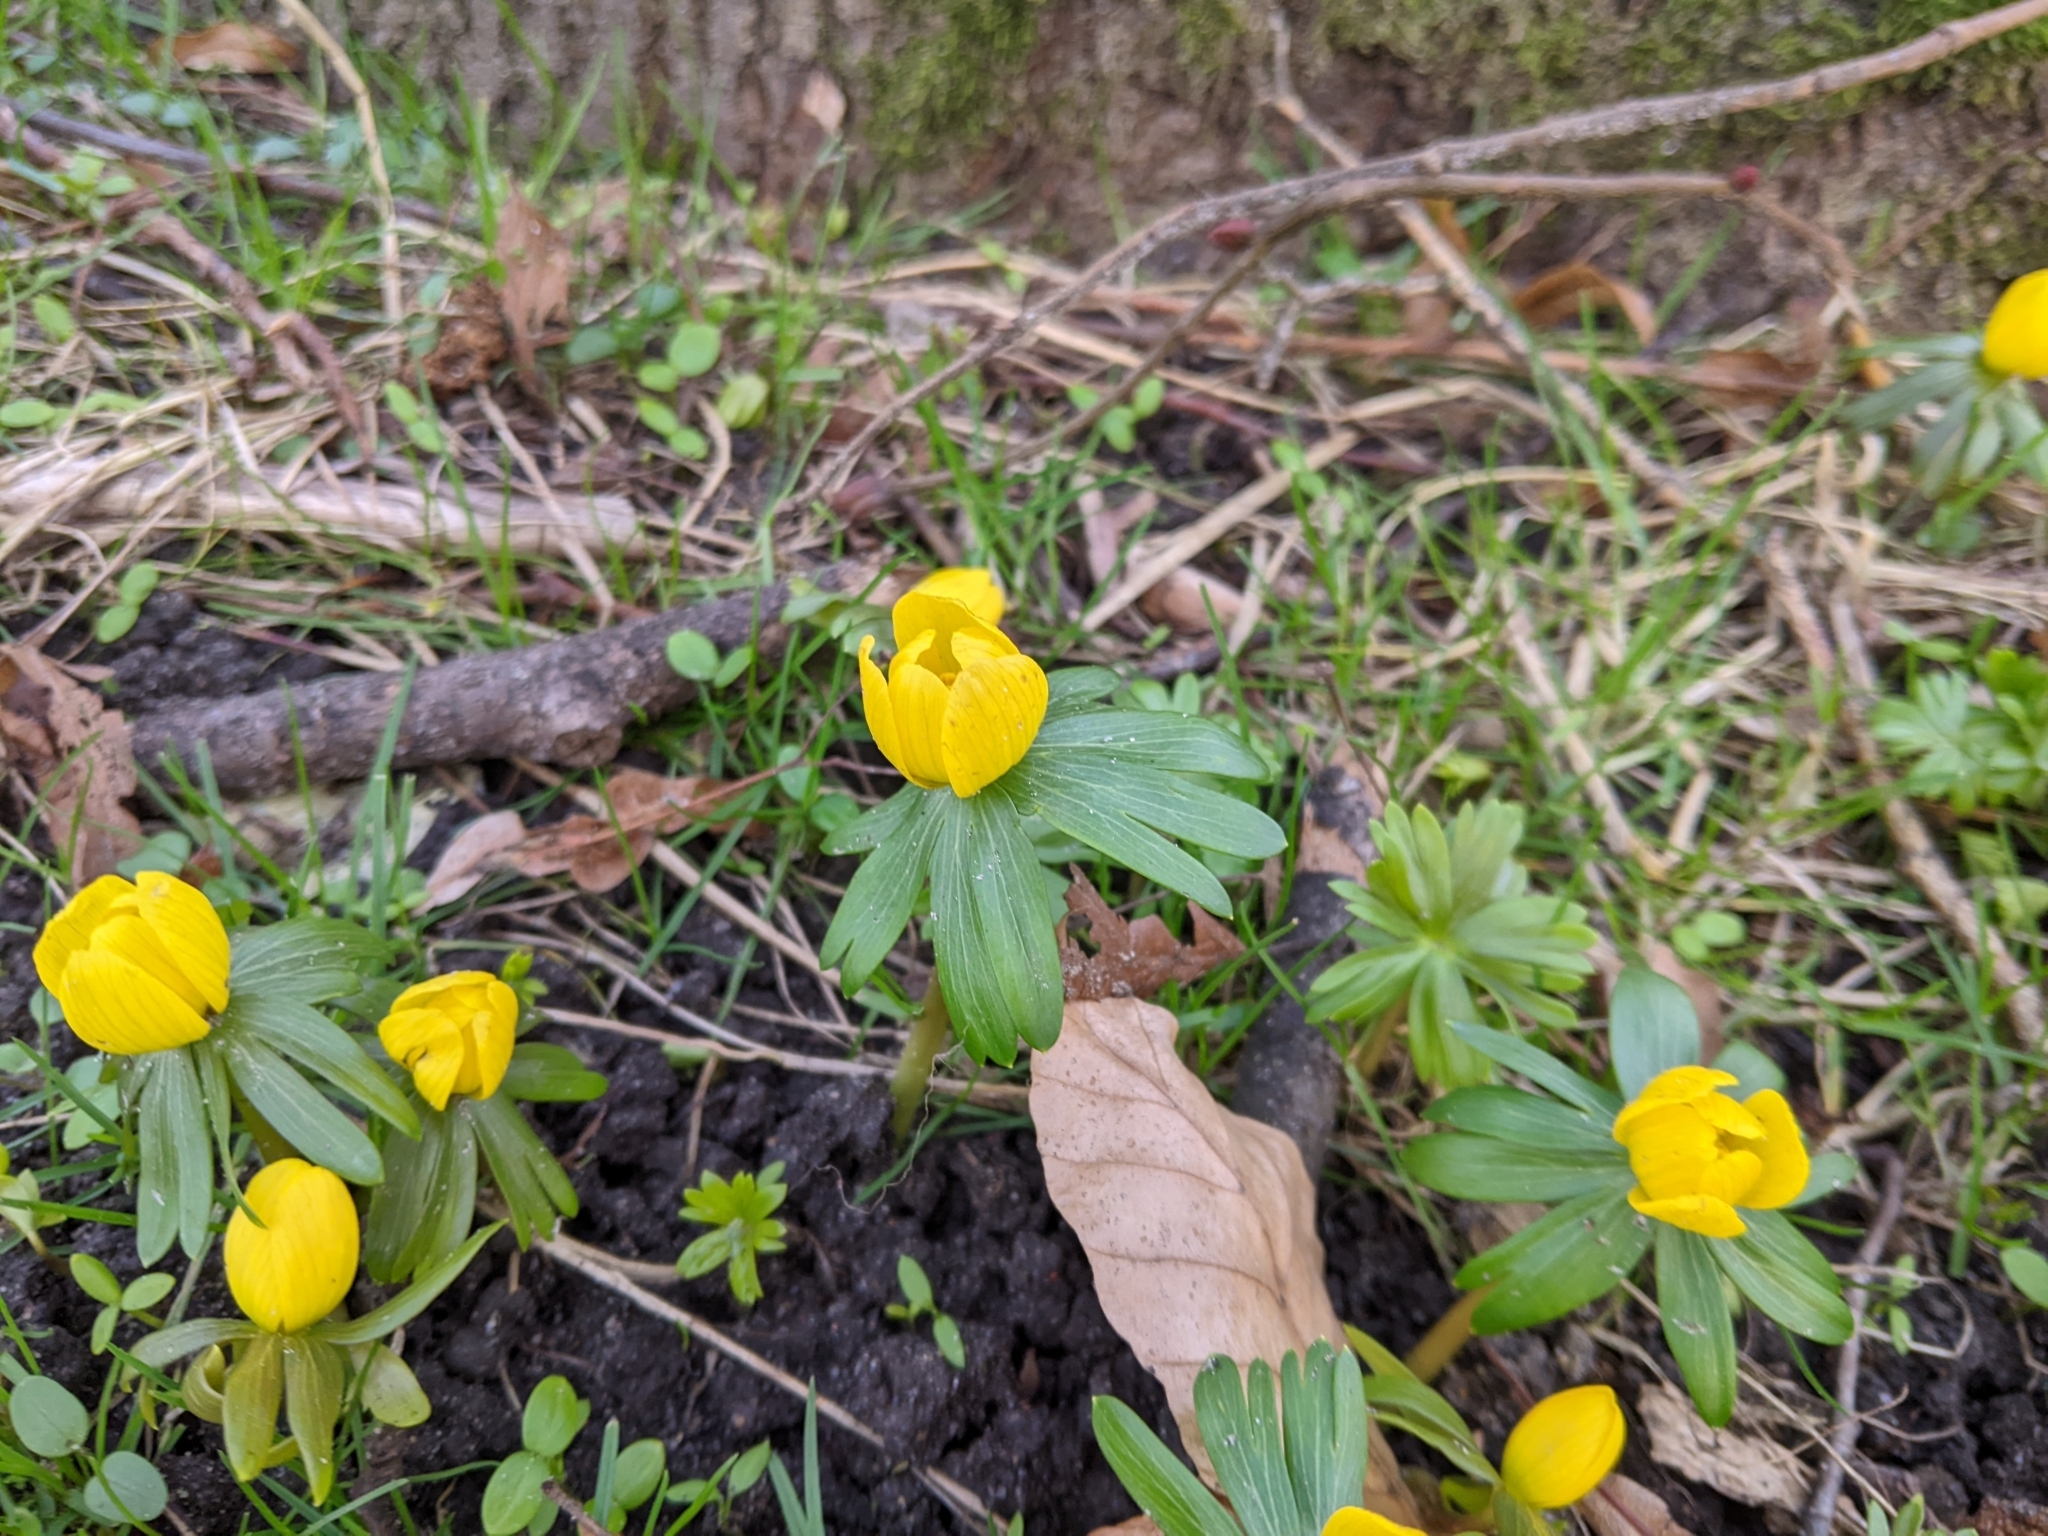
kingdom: Plantae
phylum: Tracheophyta
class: Magnoliopsida
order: Ranunculales
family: Ranunculaceae
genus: Eranthis
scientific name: Eranthis hyemalis
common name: Winter aconite
